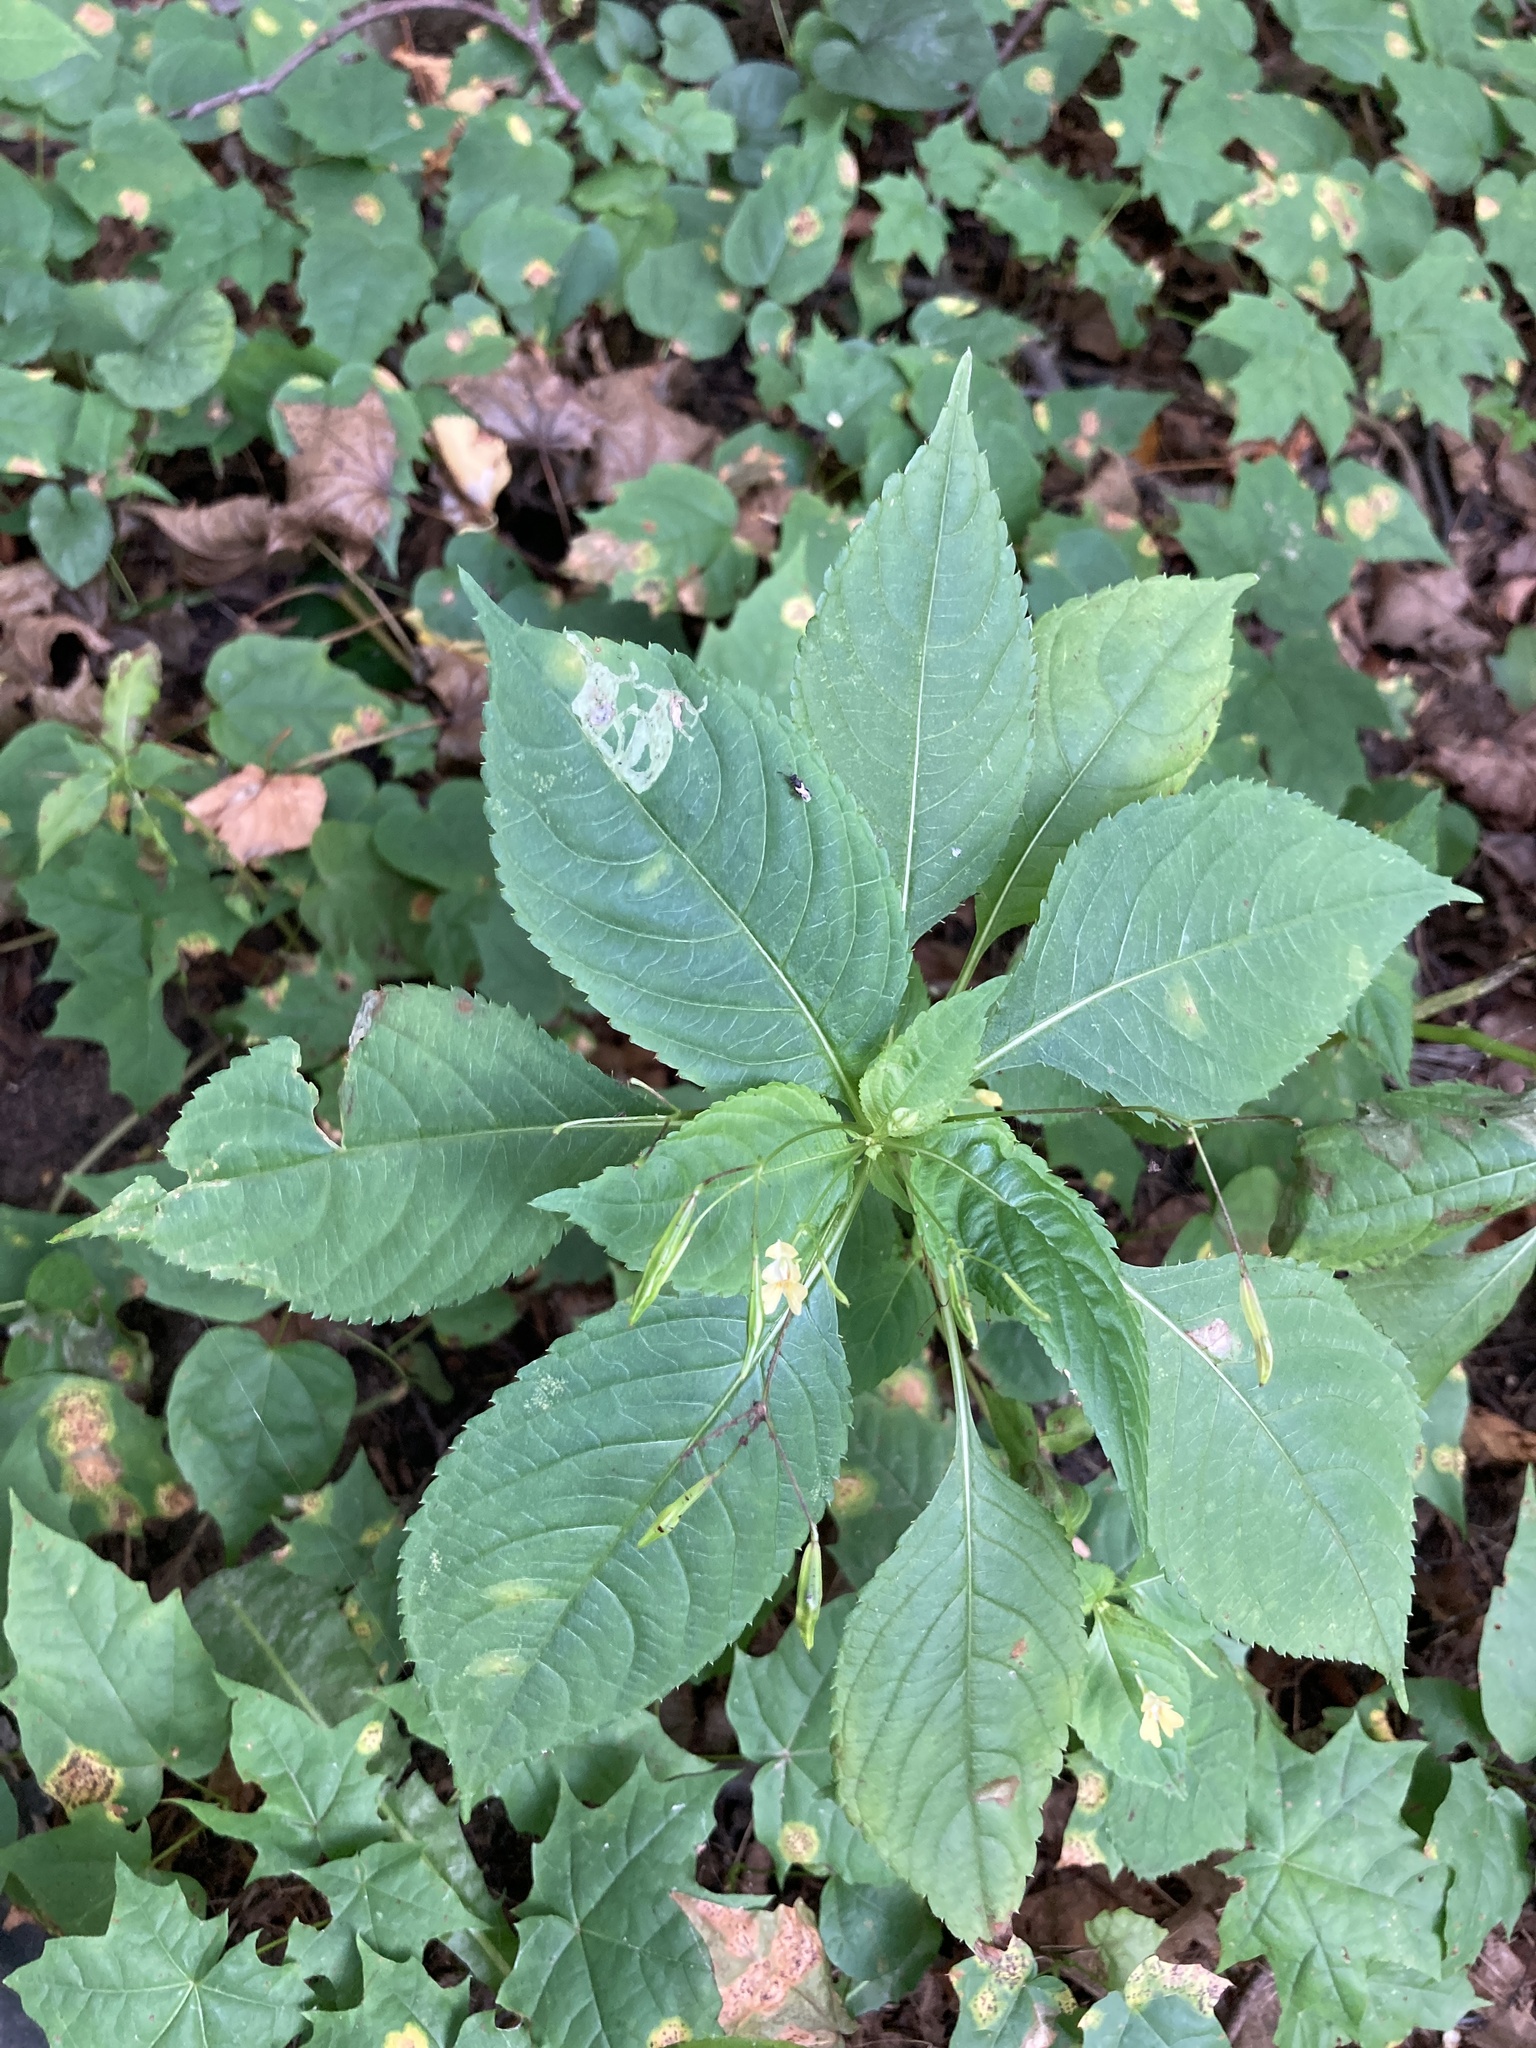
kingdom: Plantae
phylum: Tracheophyta
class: Magnoliopsida
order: Ericales
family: Balsaminaceae
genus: Impatiens
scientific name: Impatiens parviflora
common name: Small balsam
